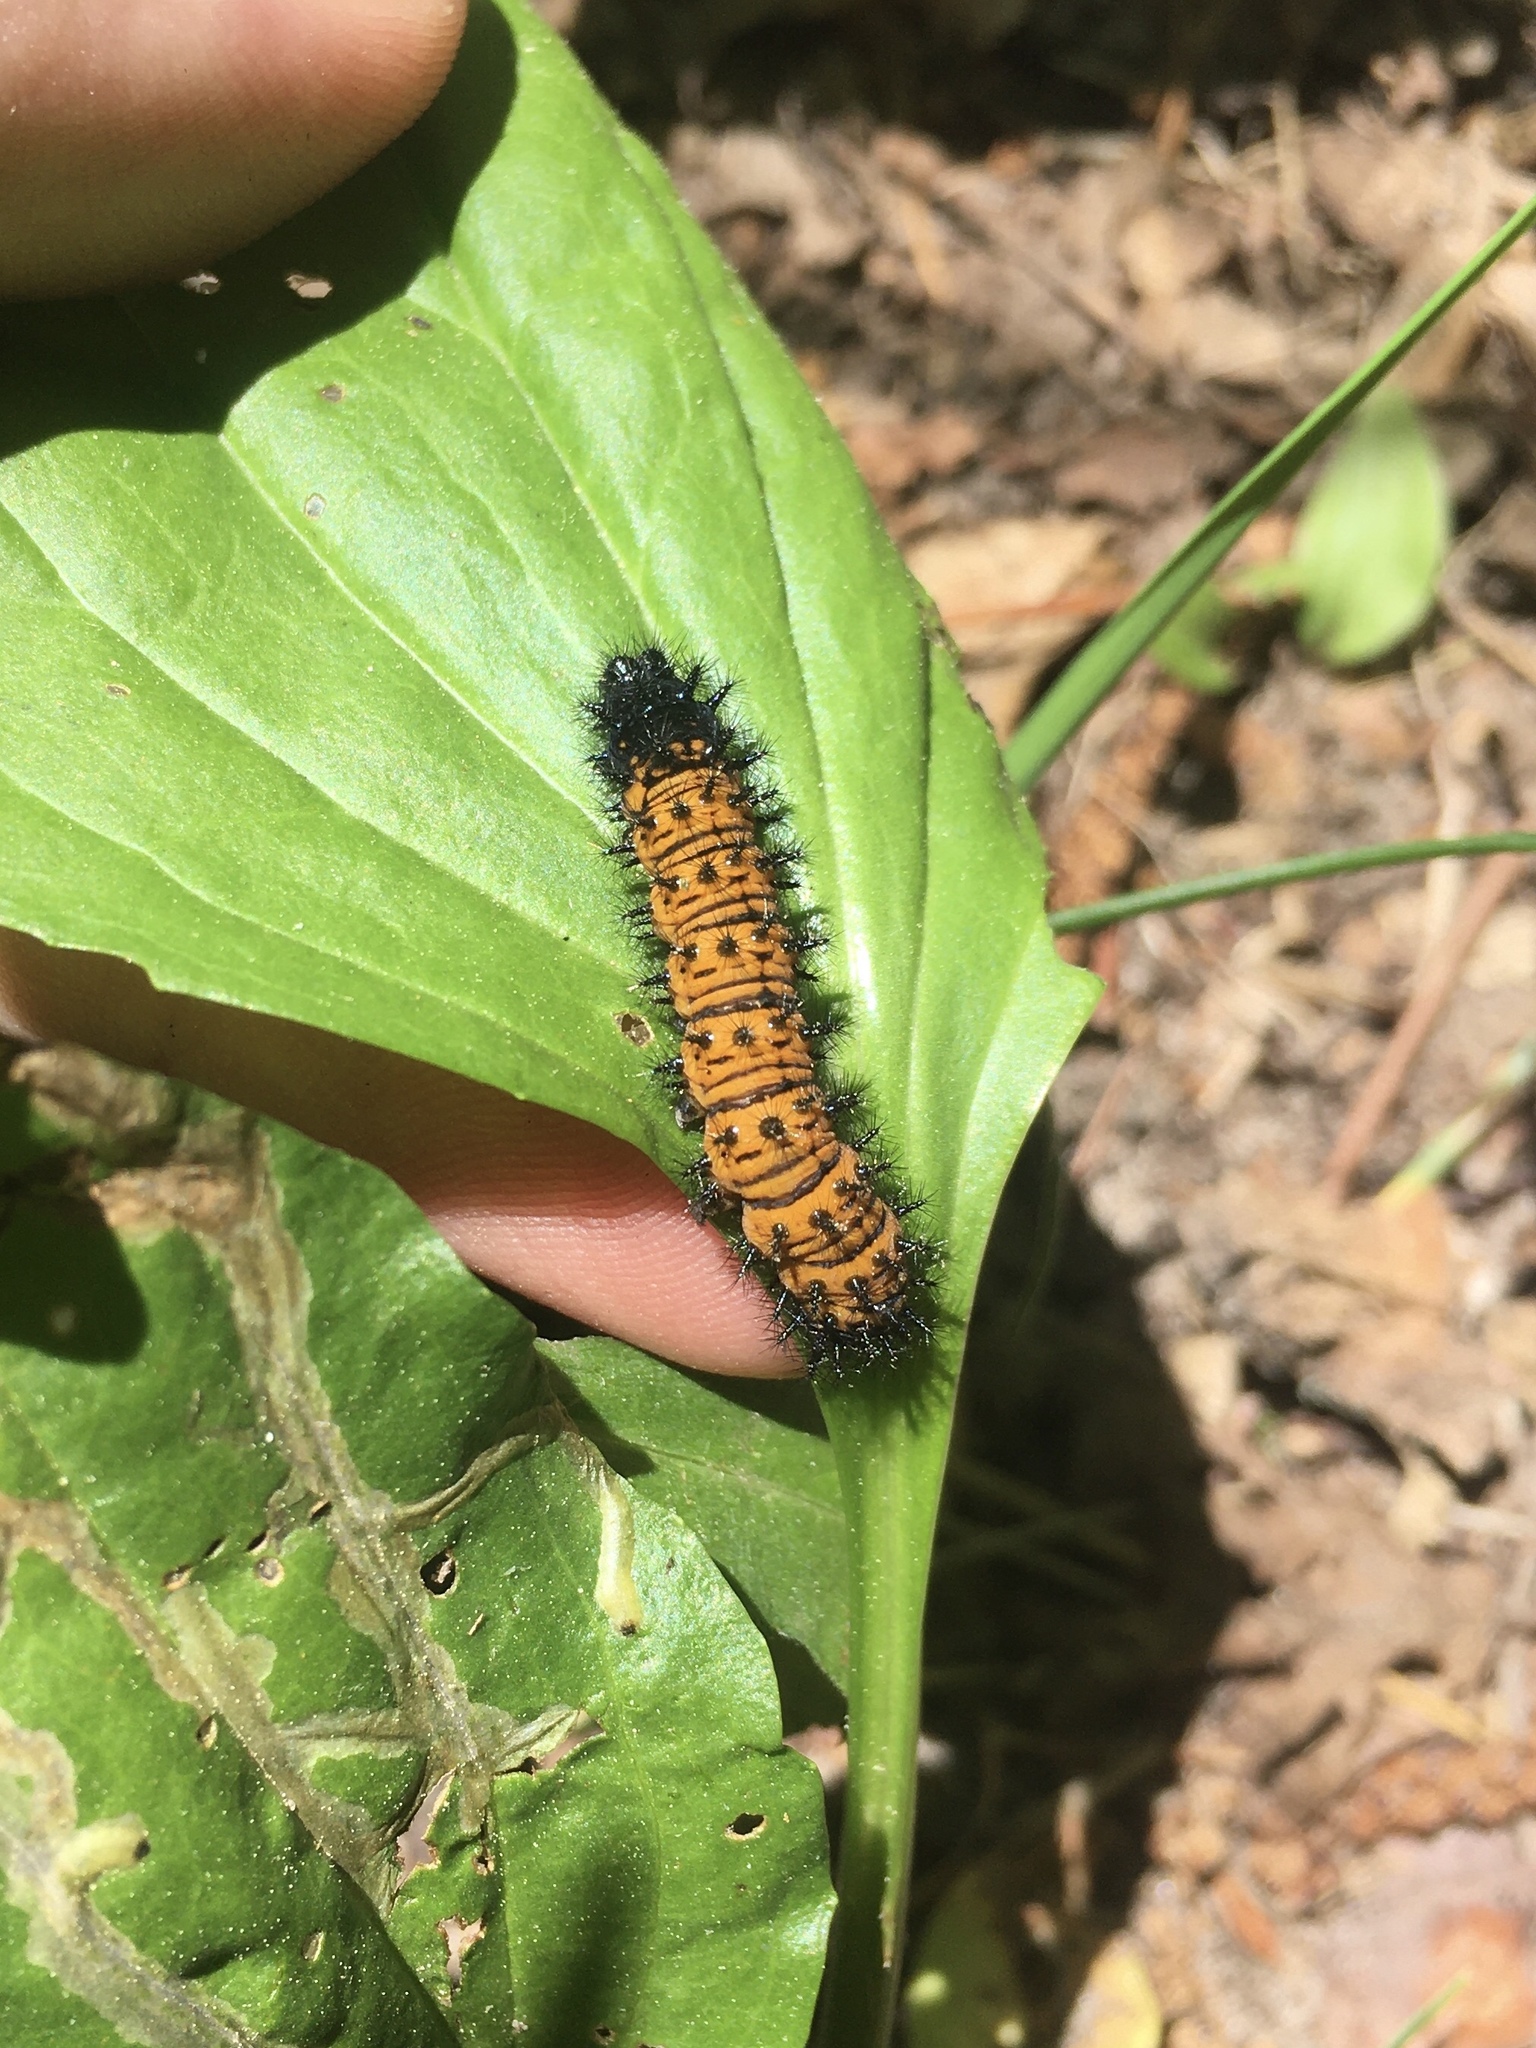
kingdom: Animalia
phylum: Arthropoda
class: Insecta
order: Lepidoptera
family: Nymphalidae
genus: Euphydryas
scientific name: Euphydryas phaeton
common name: Baltimore checkerspot
